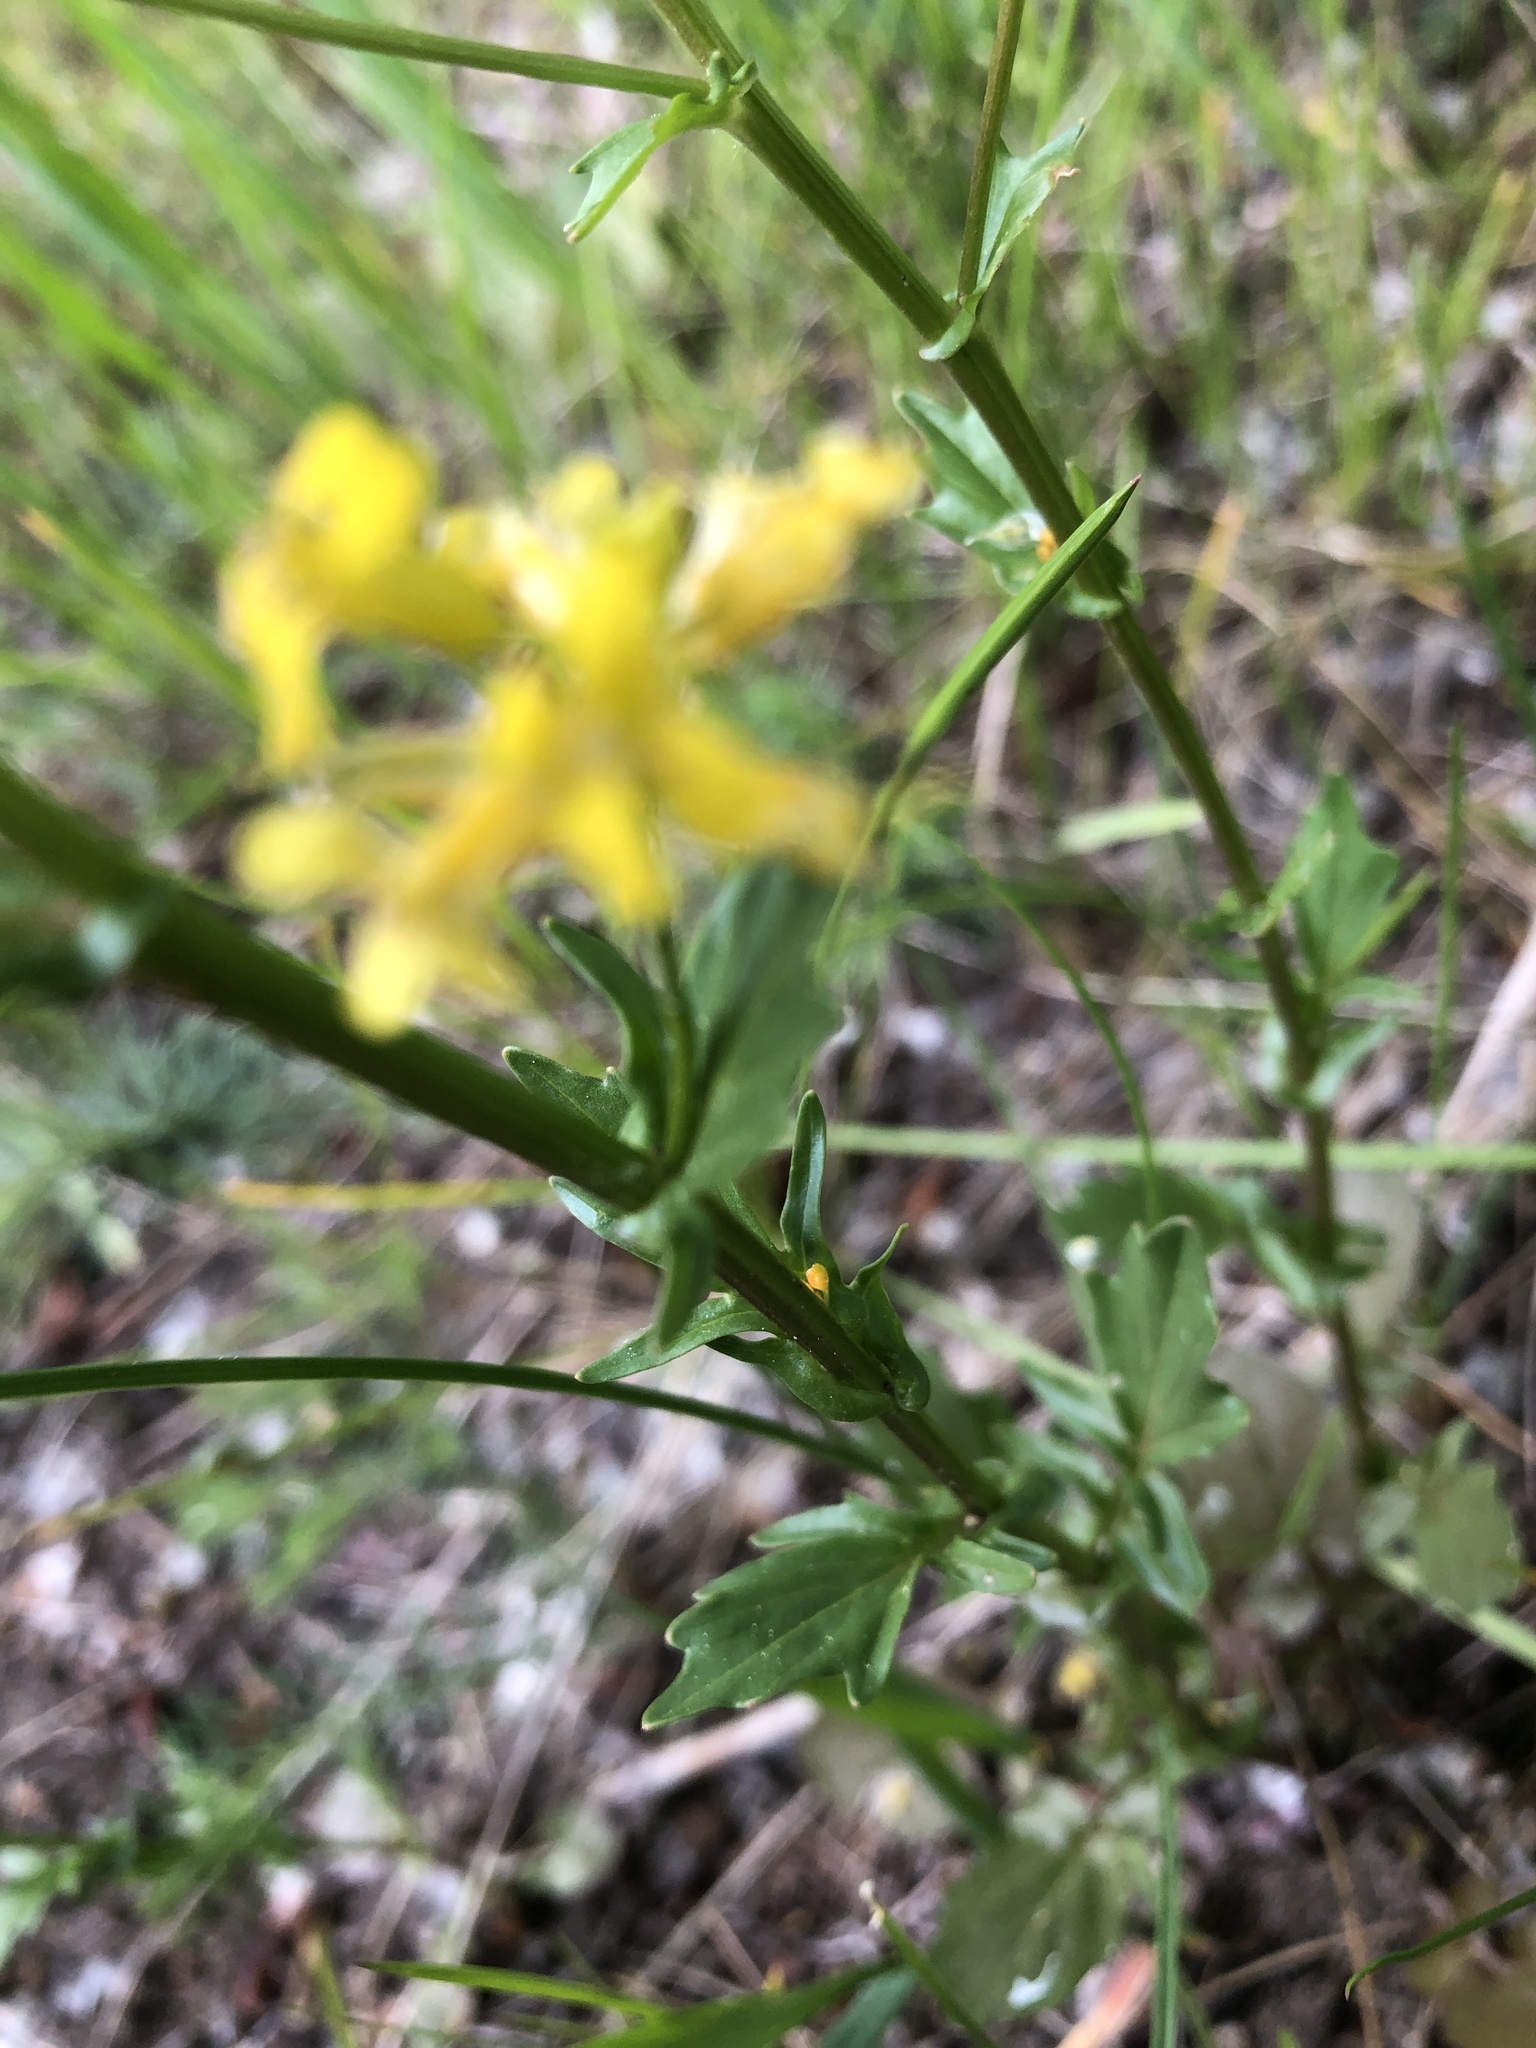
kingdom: Plantae
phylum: Tracheophyta
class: Magnoliopsida
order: Brassicales
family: Brassicaceae
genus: Barbarea
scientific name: Barbarea vulgaris
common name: Cressy-greens
